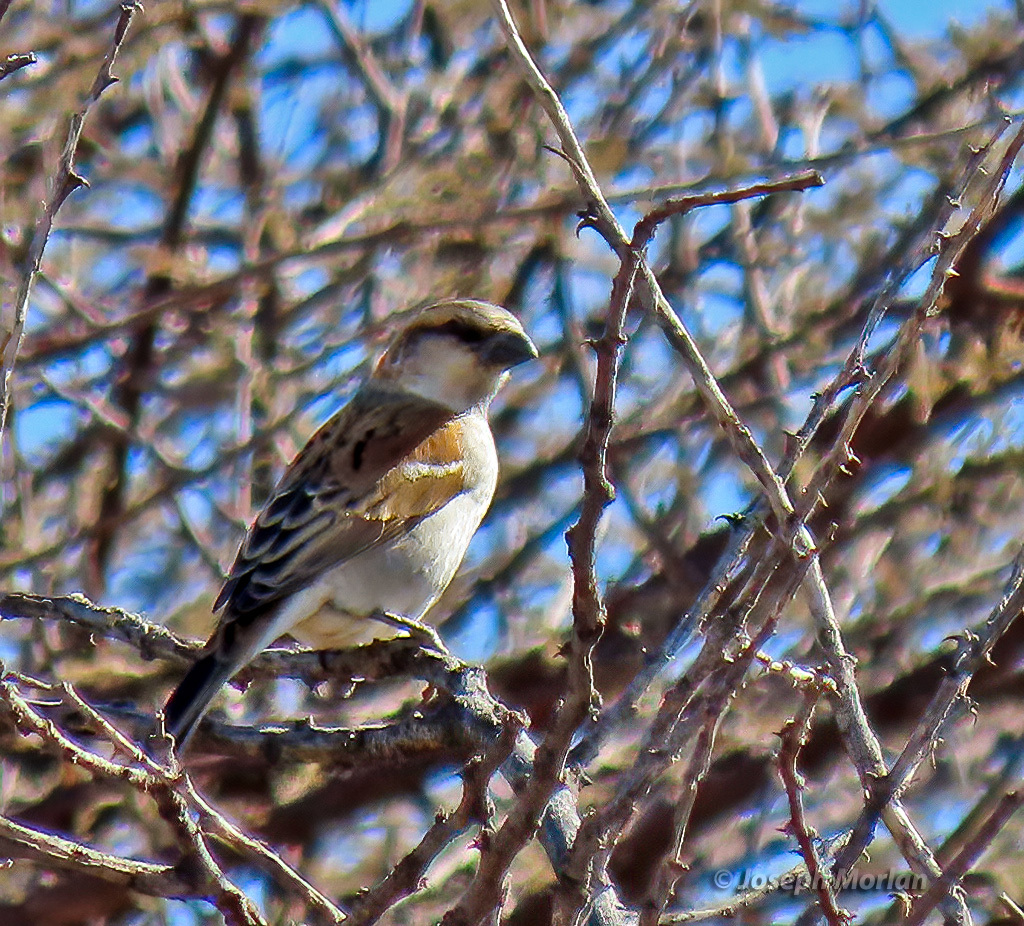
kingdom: Animalia
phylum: Chordata
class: Aves
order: Passeriformes
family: Passeridae
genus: Passer
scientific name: Passer motitensis
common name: Great sparrow
